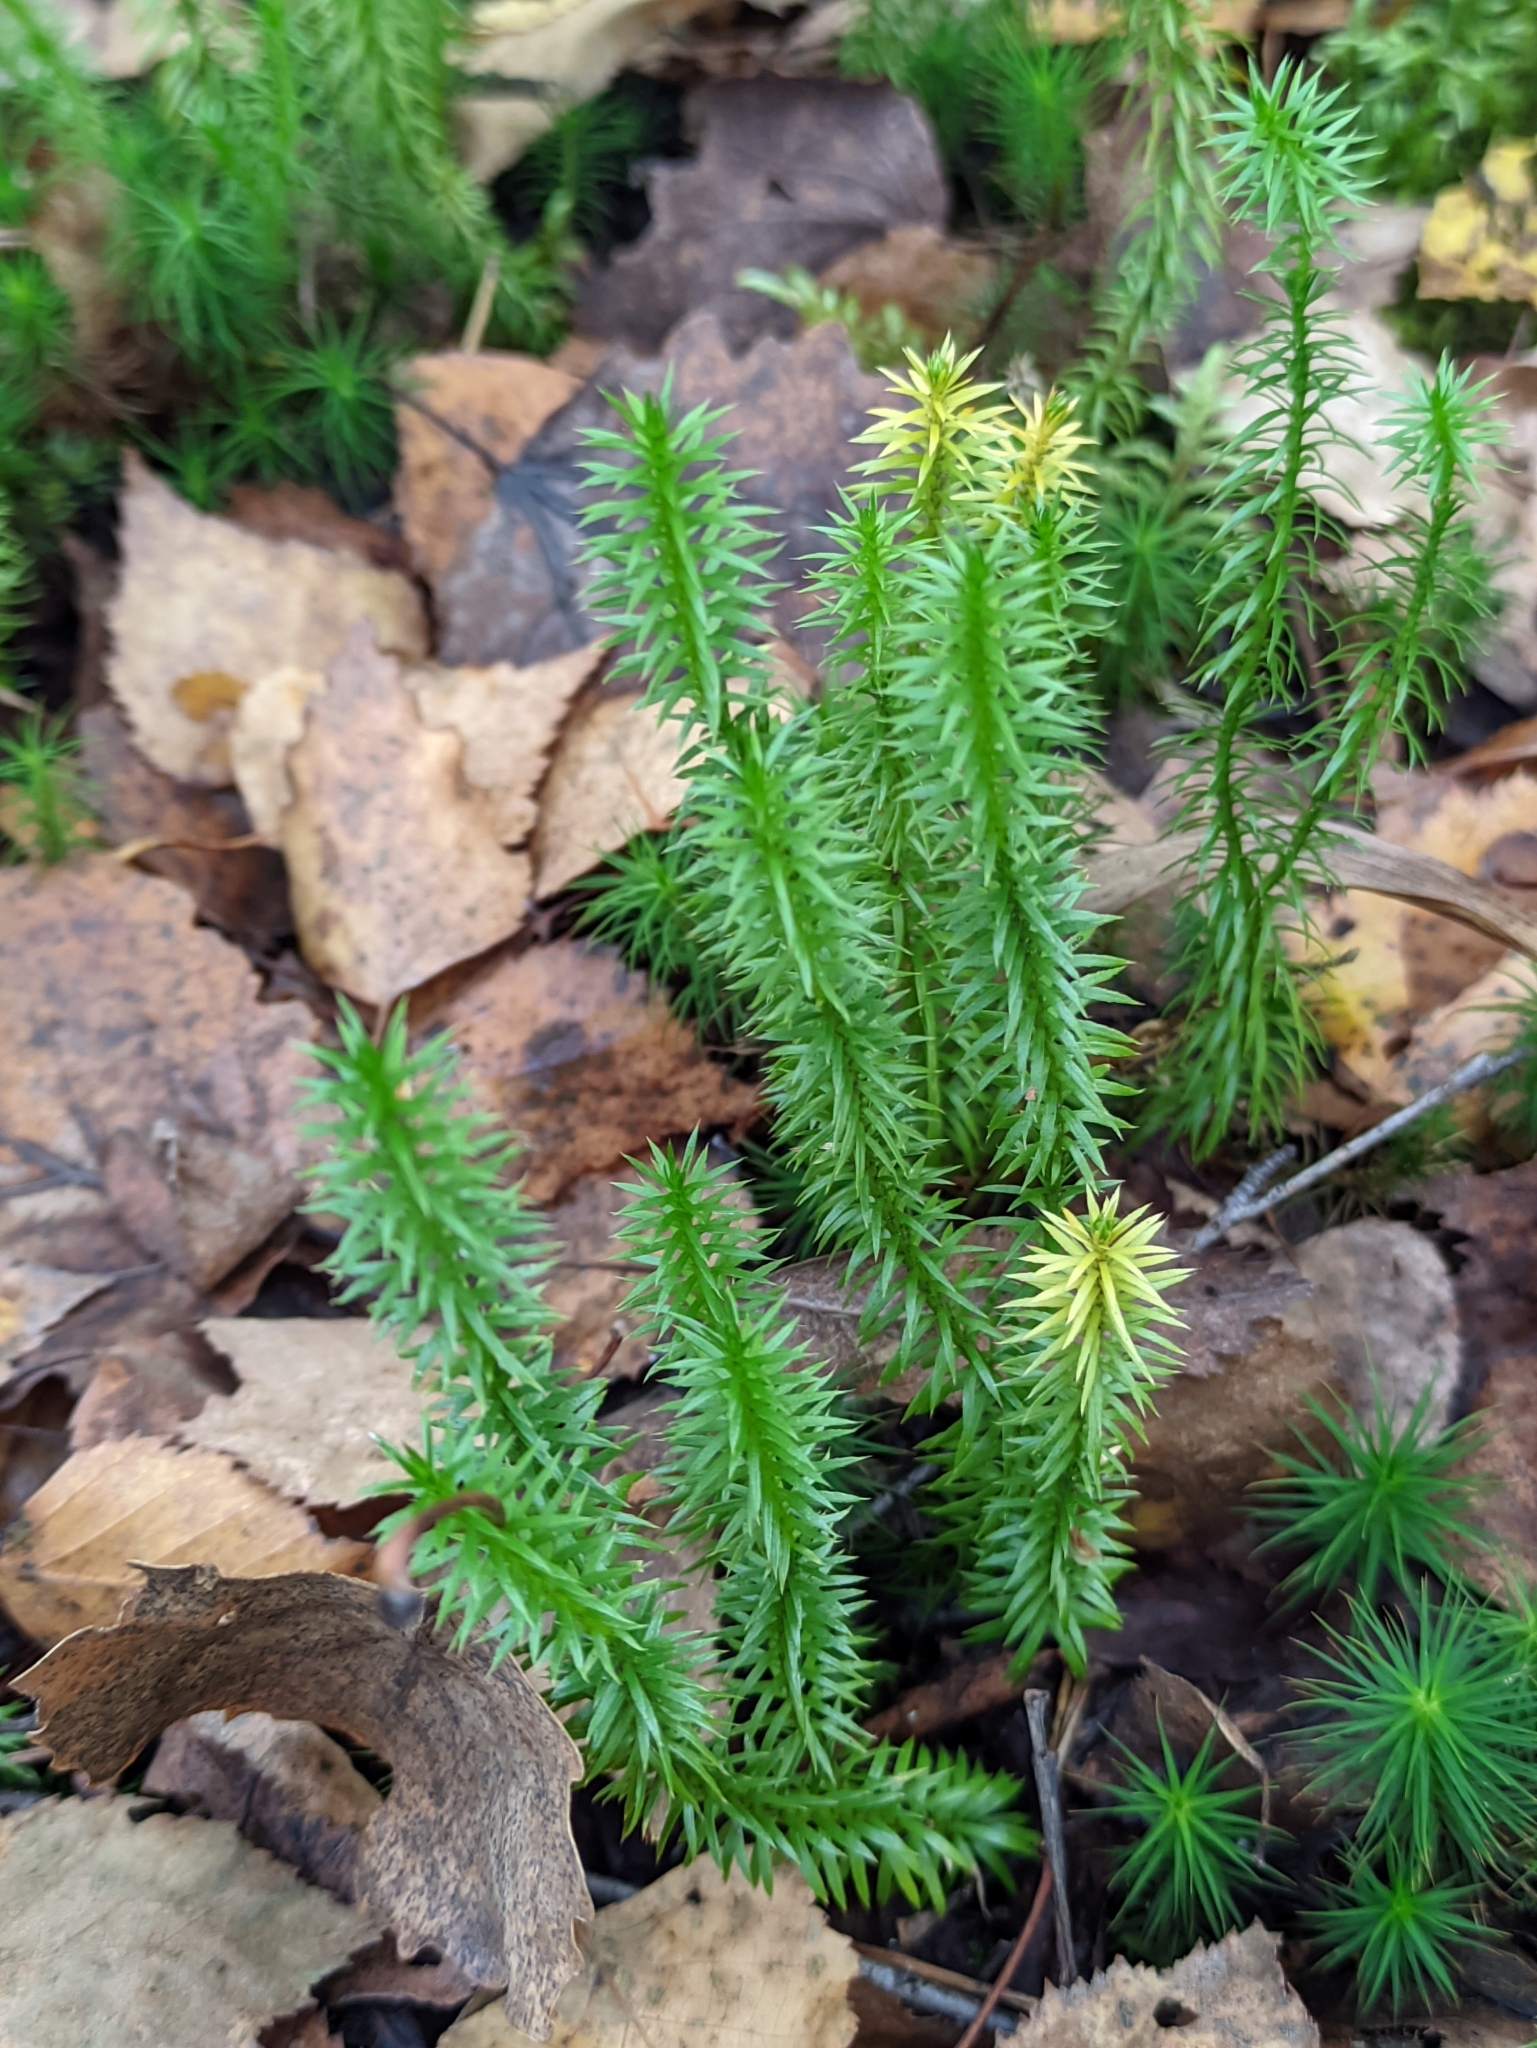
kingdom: Plantae
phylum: Tracheophyta
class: Lycopodiopsida
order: Lycopodiales
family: Lycopodiaceae
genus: Spinulum
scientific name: Spinulum annotinum
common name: Interrupted club-moss
